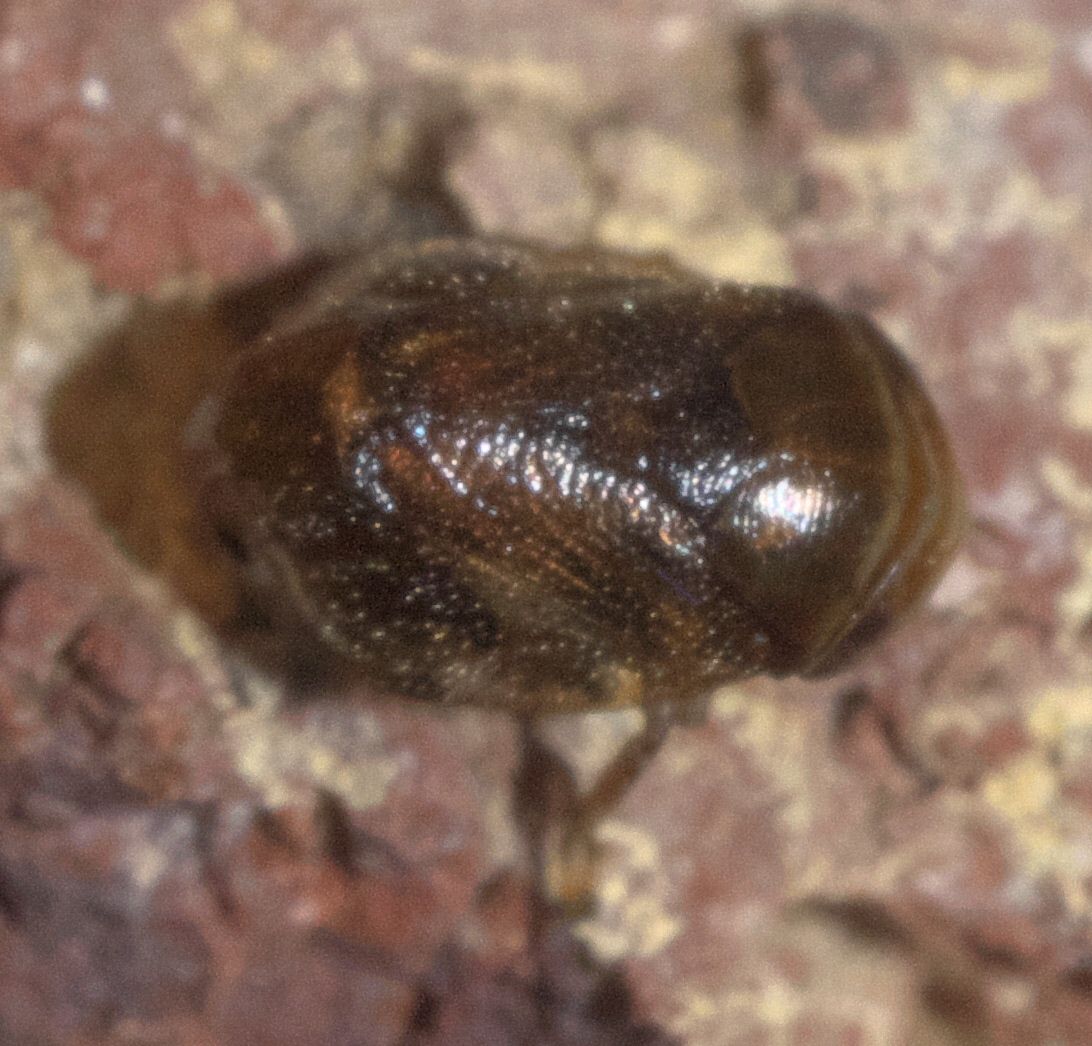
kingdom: Animalia
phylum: Arthropoda
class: Insecta
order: Hemiptera
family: Clastopteridae
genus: Clastoptera
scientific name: Clastoptera xanthocephala
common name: Sunflower spittlebug
